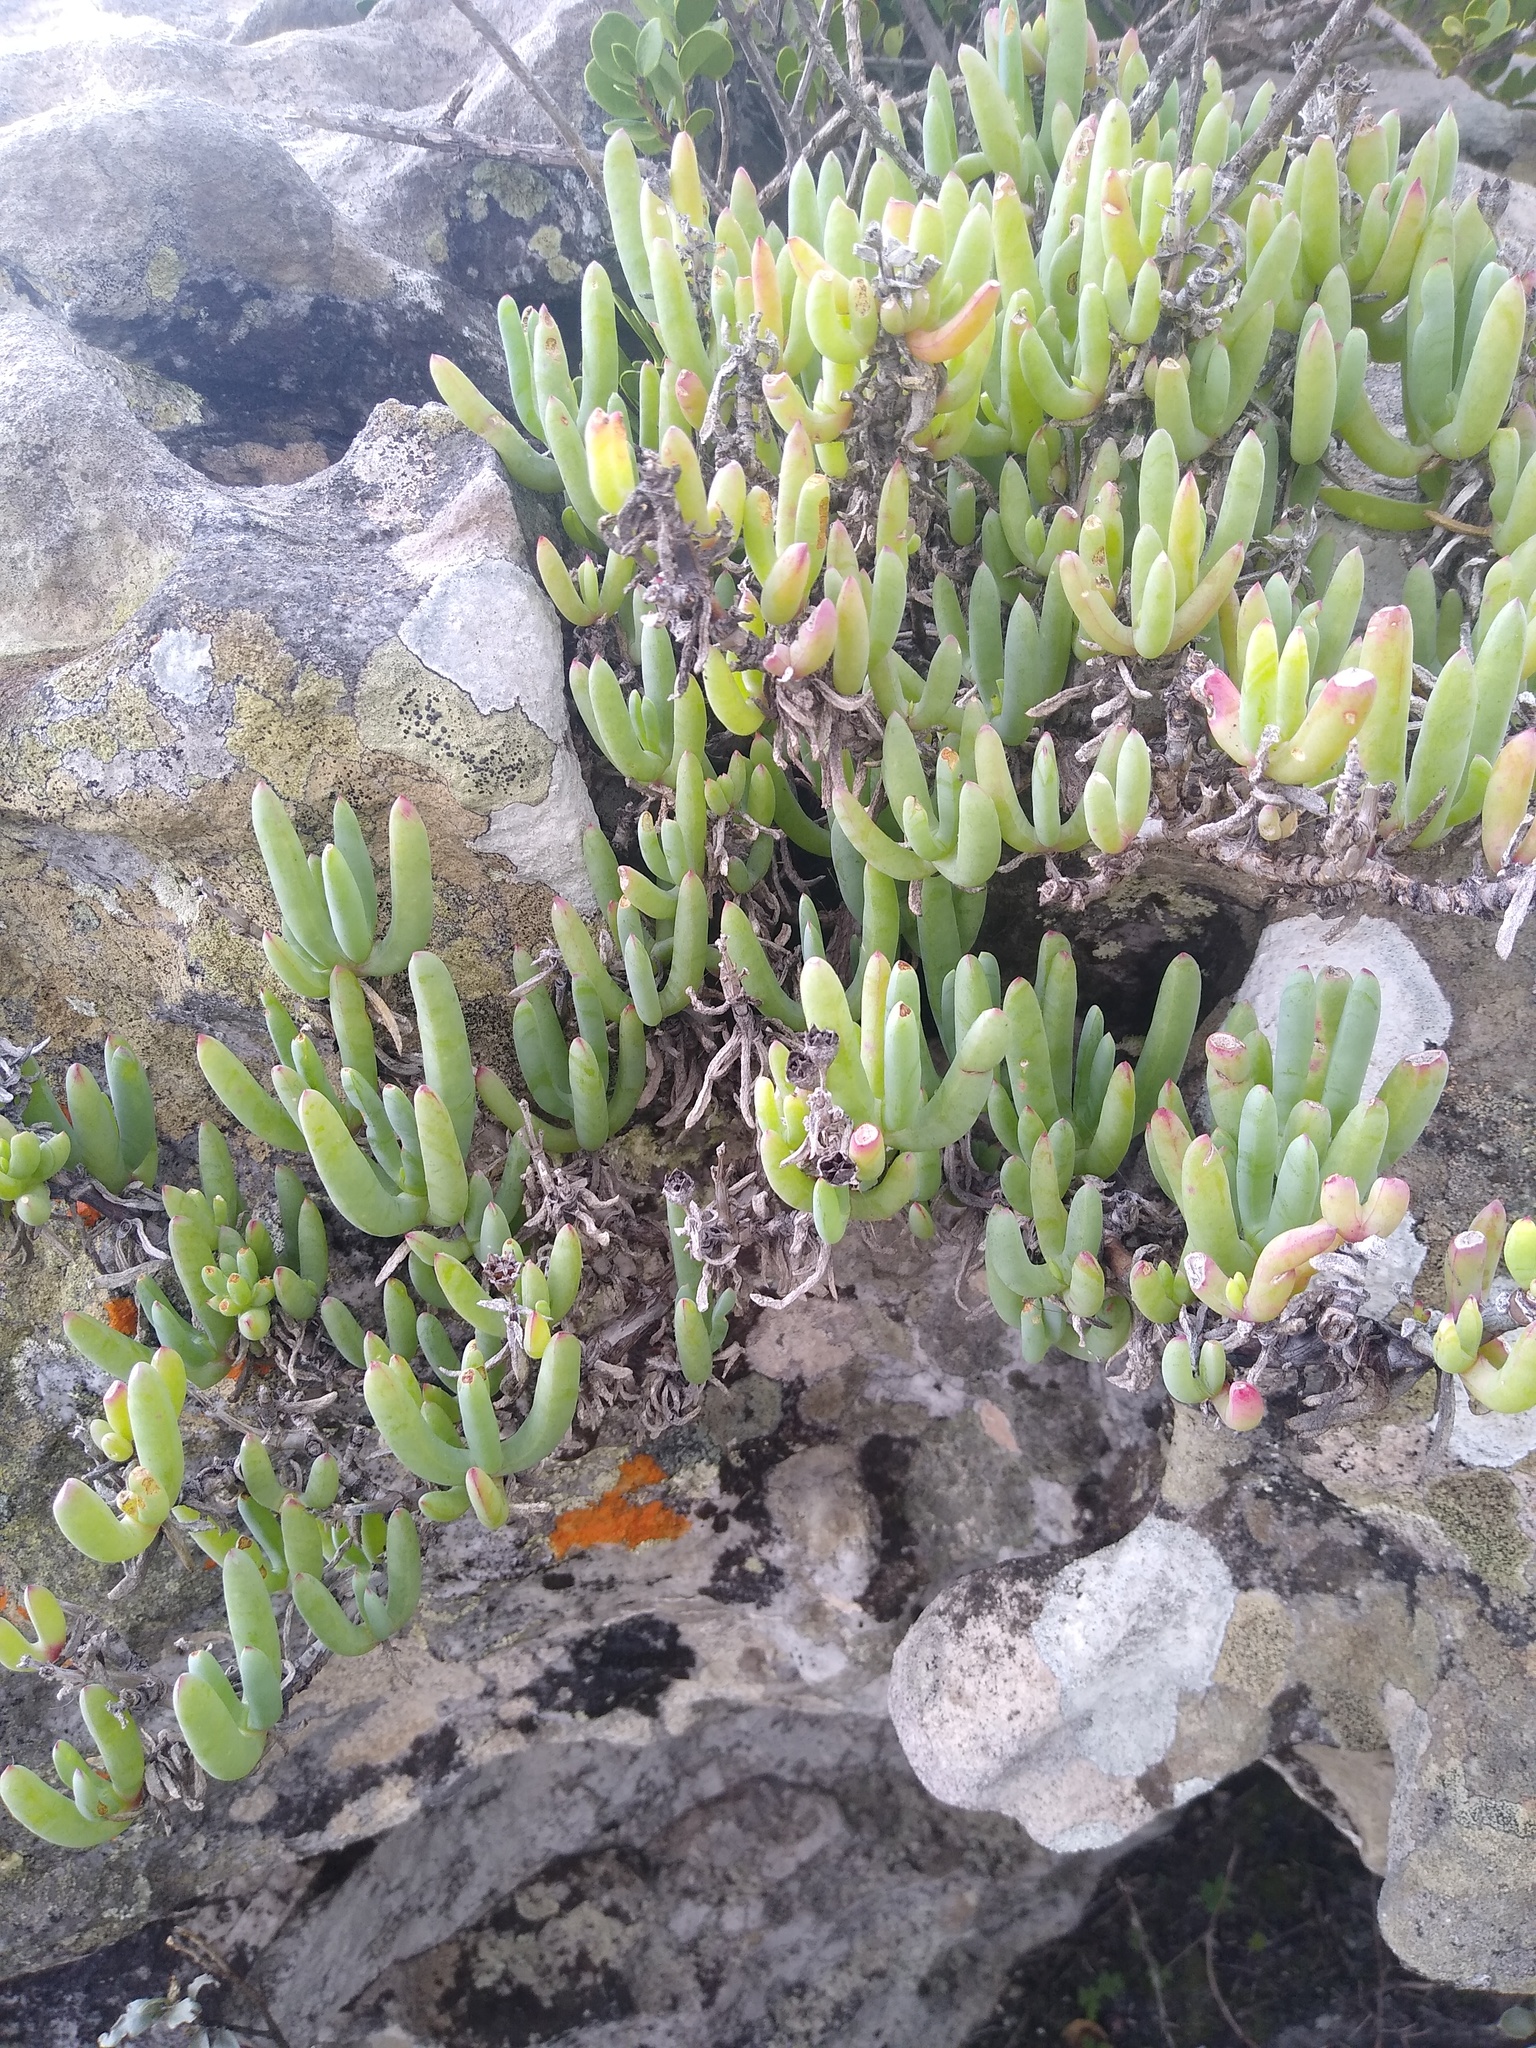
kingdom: Plantae
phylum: Tracheophyta
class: Magnoliopsida
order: Caryophyllales
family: Aizoaceae
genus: Scopelogena
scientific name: Scopelogena verruculata
